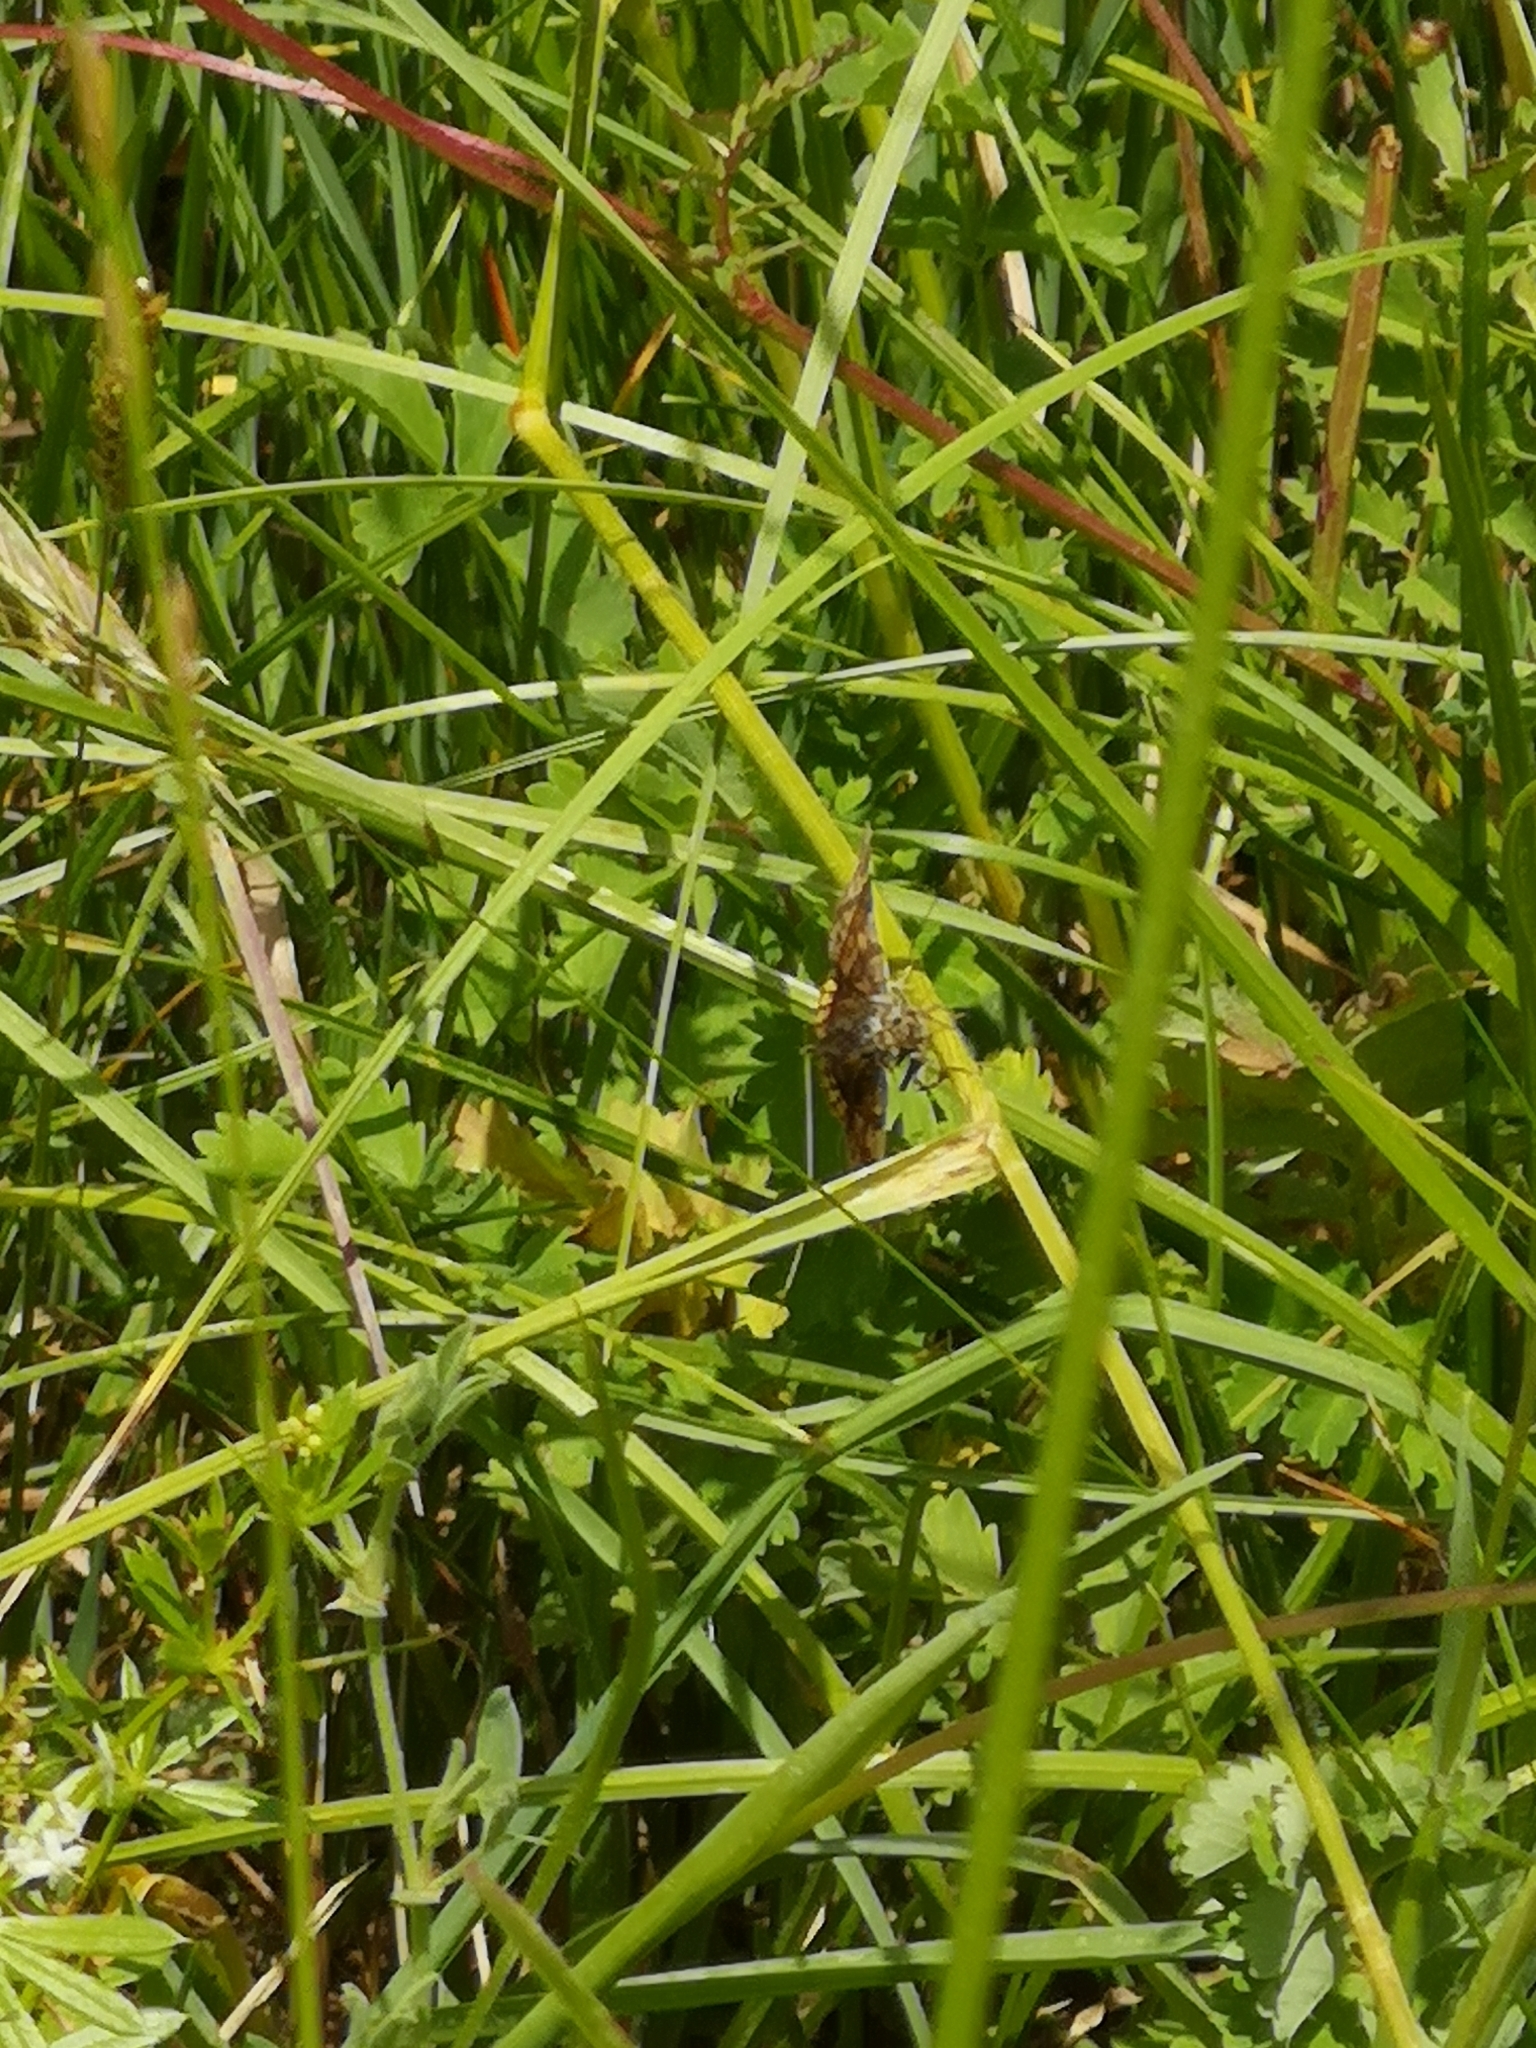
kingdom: Animalia
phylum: Arthropoda
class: Insecta
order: Lepidoptera
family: Erebidae
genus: Euclidia
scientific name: Euclidia glyphica
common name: Burnet companion
